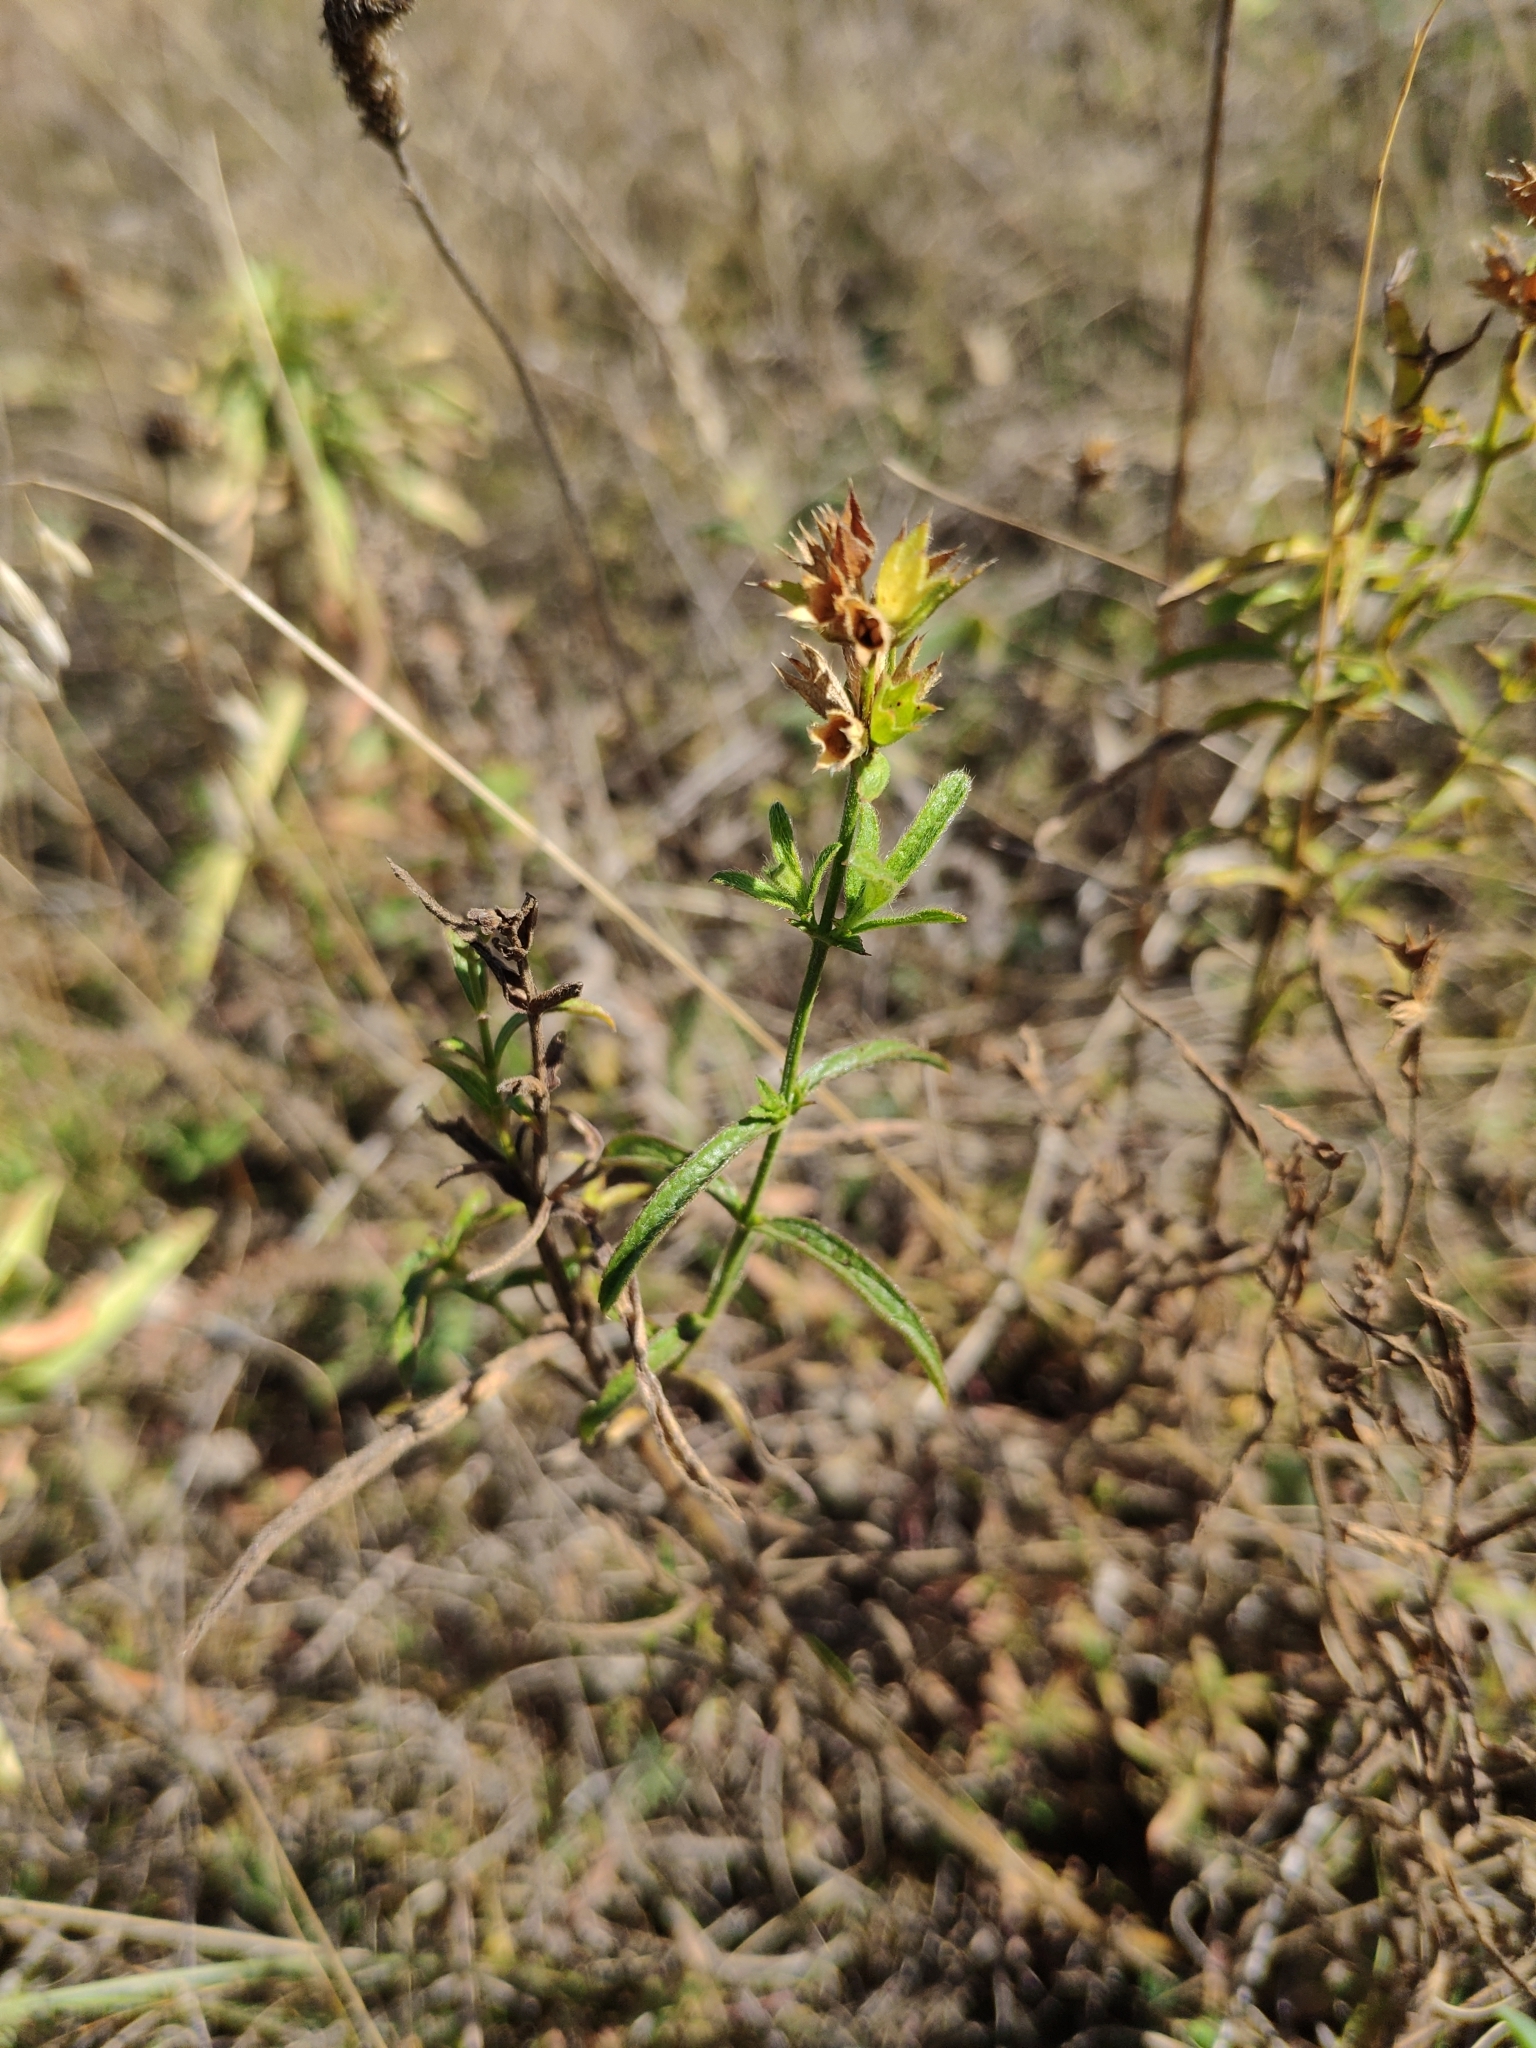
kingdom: Plantae
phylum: Tracheophyta
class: Magnoliopsida
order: Lamiales
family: Lamiaceae
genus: Stachys
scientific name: Stachys recta
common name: Perennial yellow-woundwort
